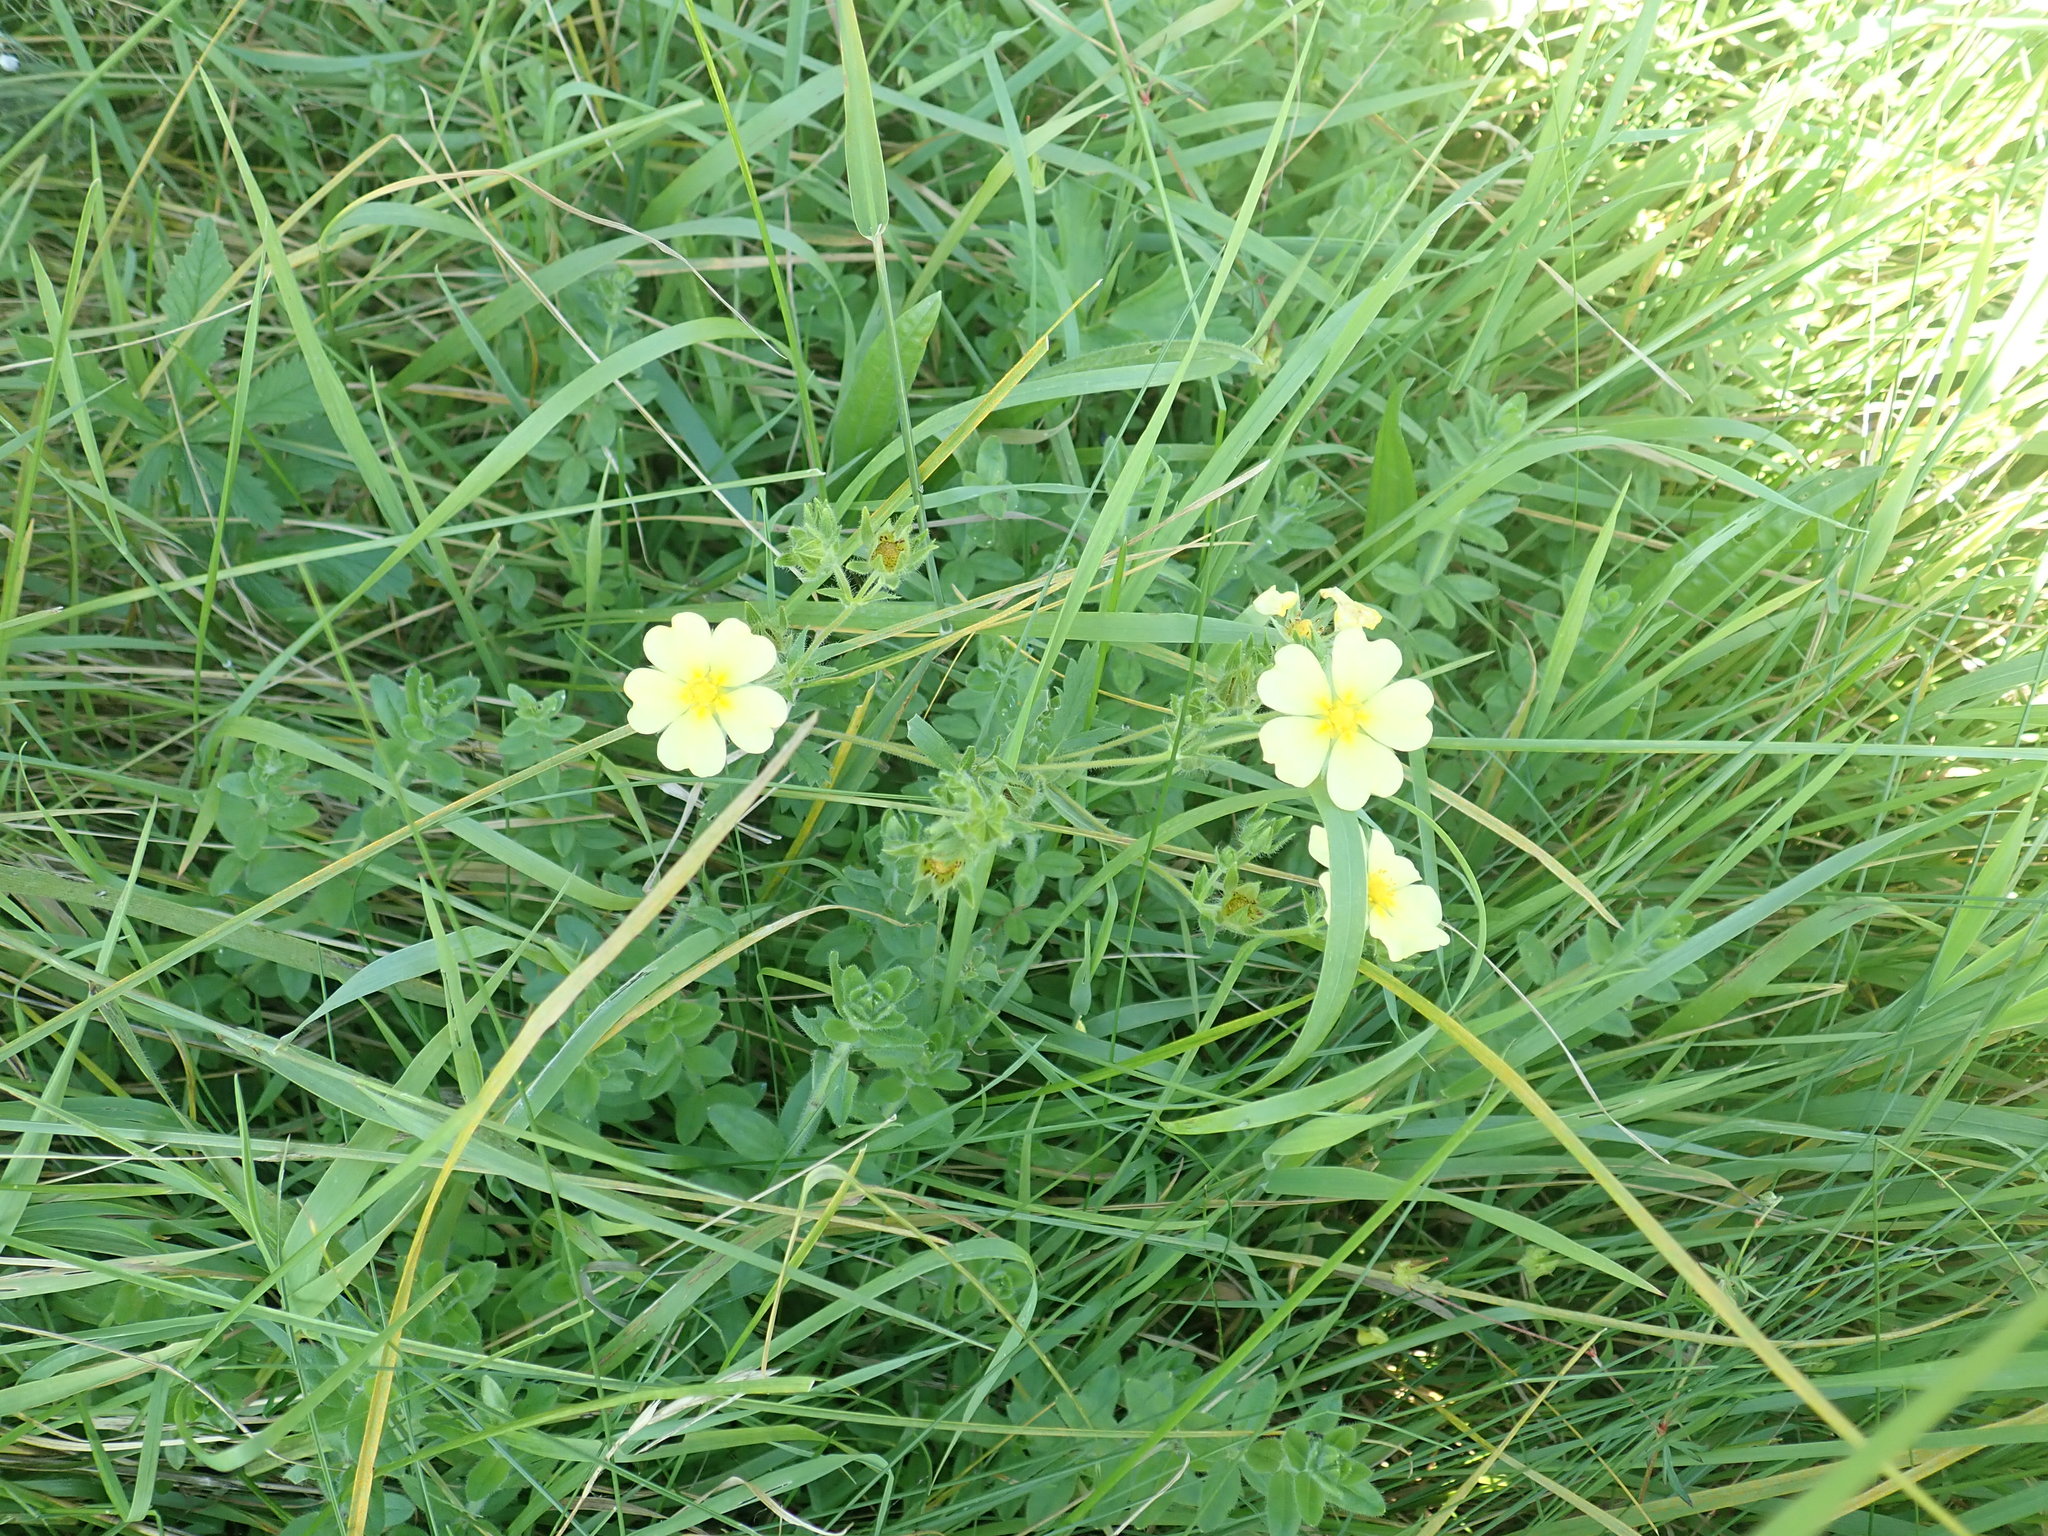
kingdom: Plantae
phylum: Tracheophyta
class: Magnoliopsida
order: Rosales
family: Rosaceae
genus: Potentilla
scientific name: Potentilla recta
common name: Sulphur cinquefoil
